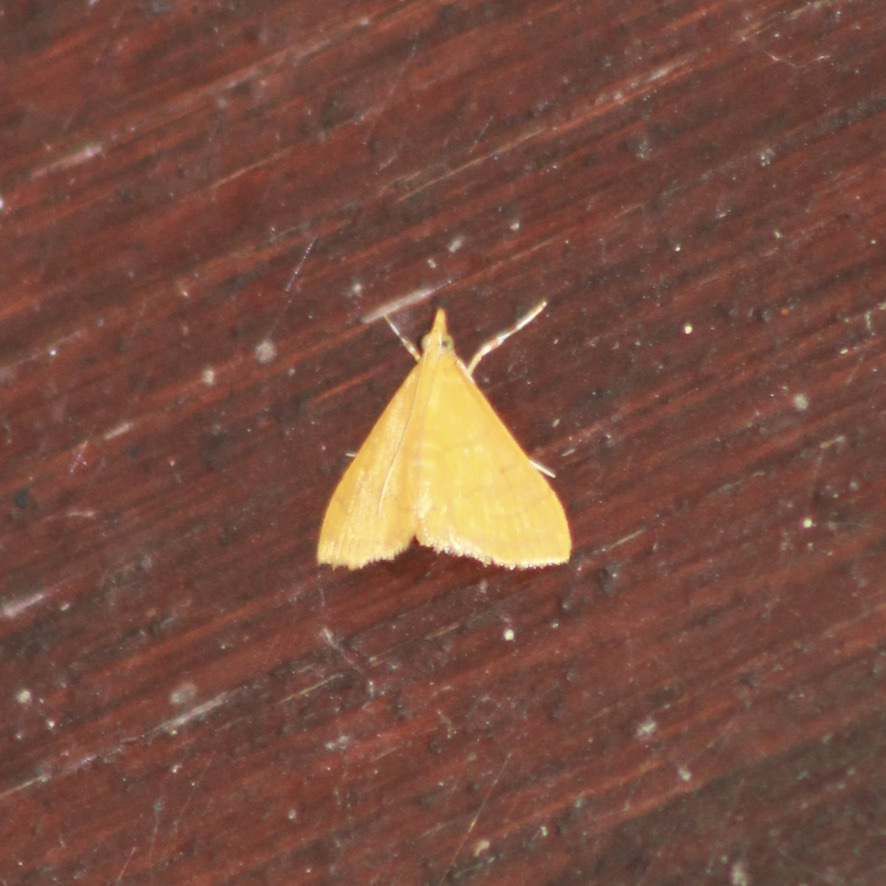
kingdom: Animalia
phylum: Arthropoda
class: Insecta
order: Lepidoptera
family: Crambidae
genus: Pyrausta
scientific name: Pyrausta insignitalis
